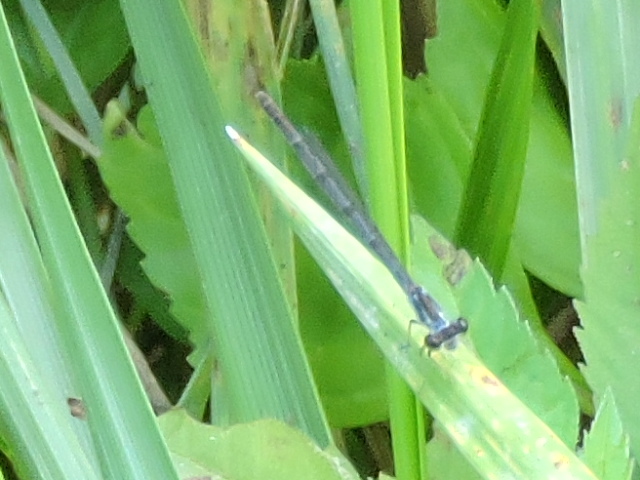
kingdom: Animalia
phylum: Arthropoda
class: Insecta
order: Odonata
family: Coenagrionidae
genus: Ischnura
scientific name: Ischnura posita
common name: Fragile forktail
